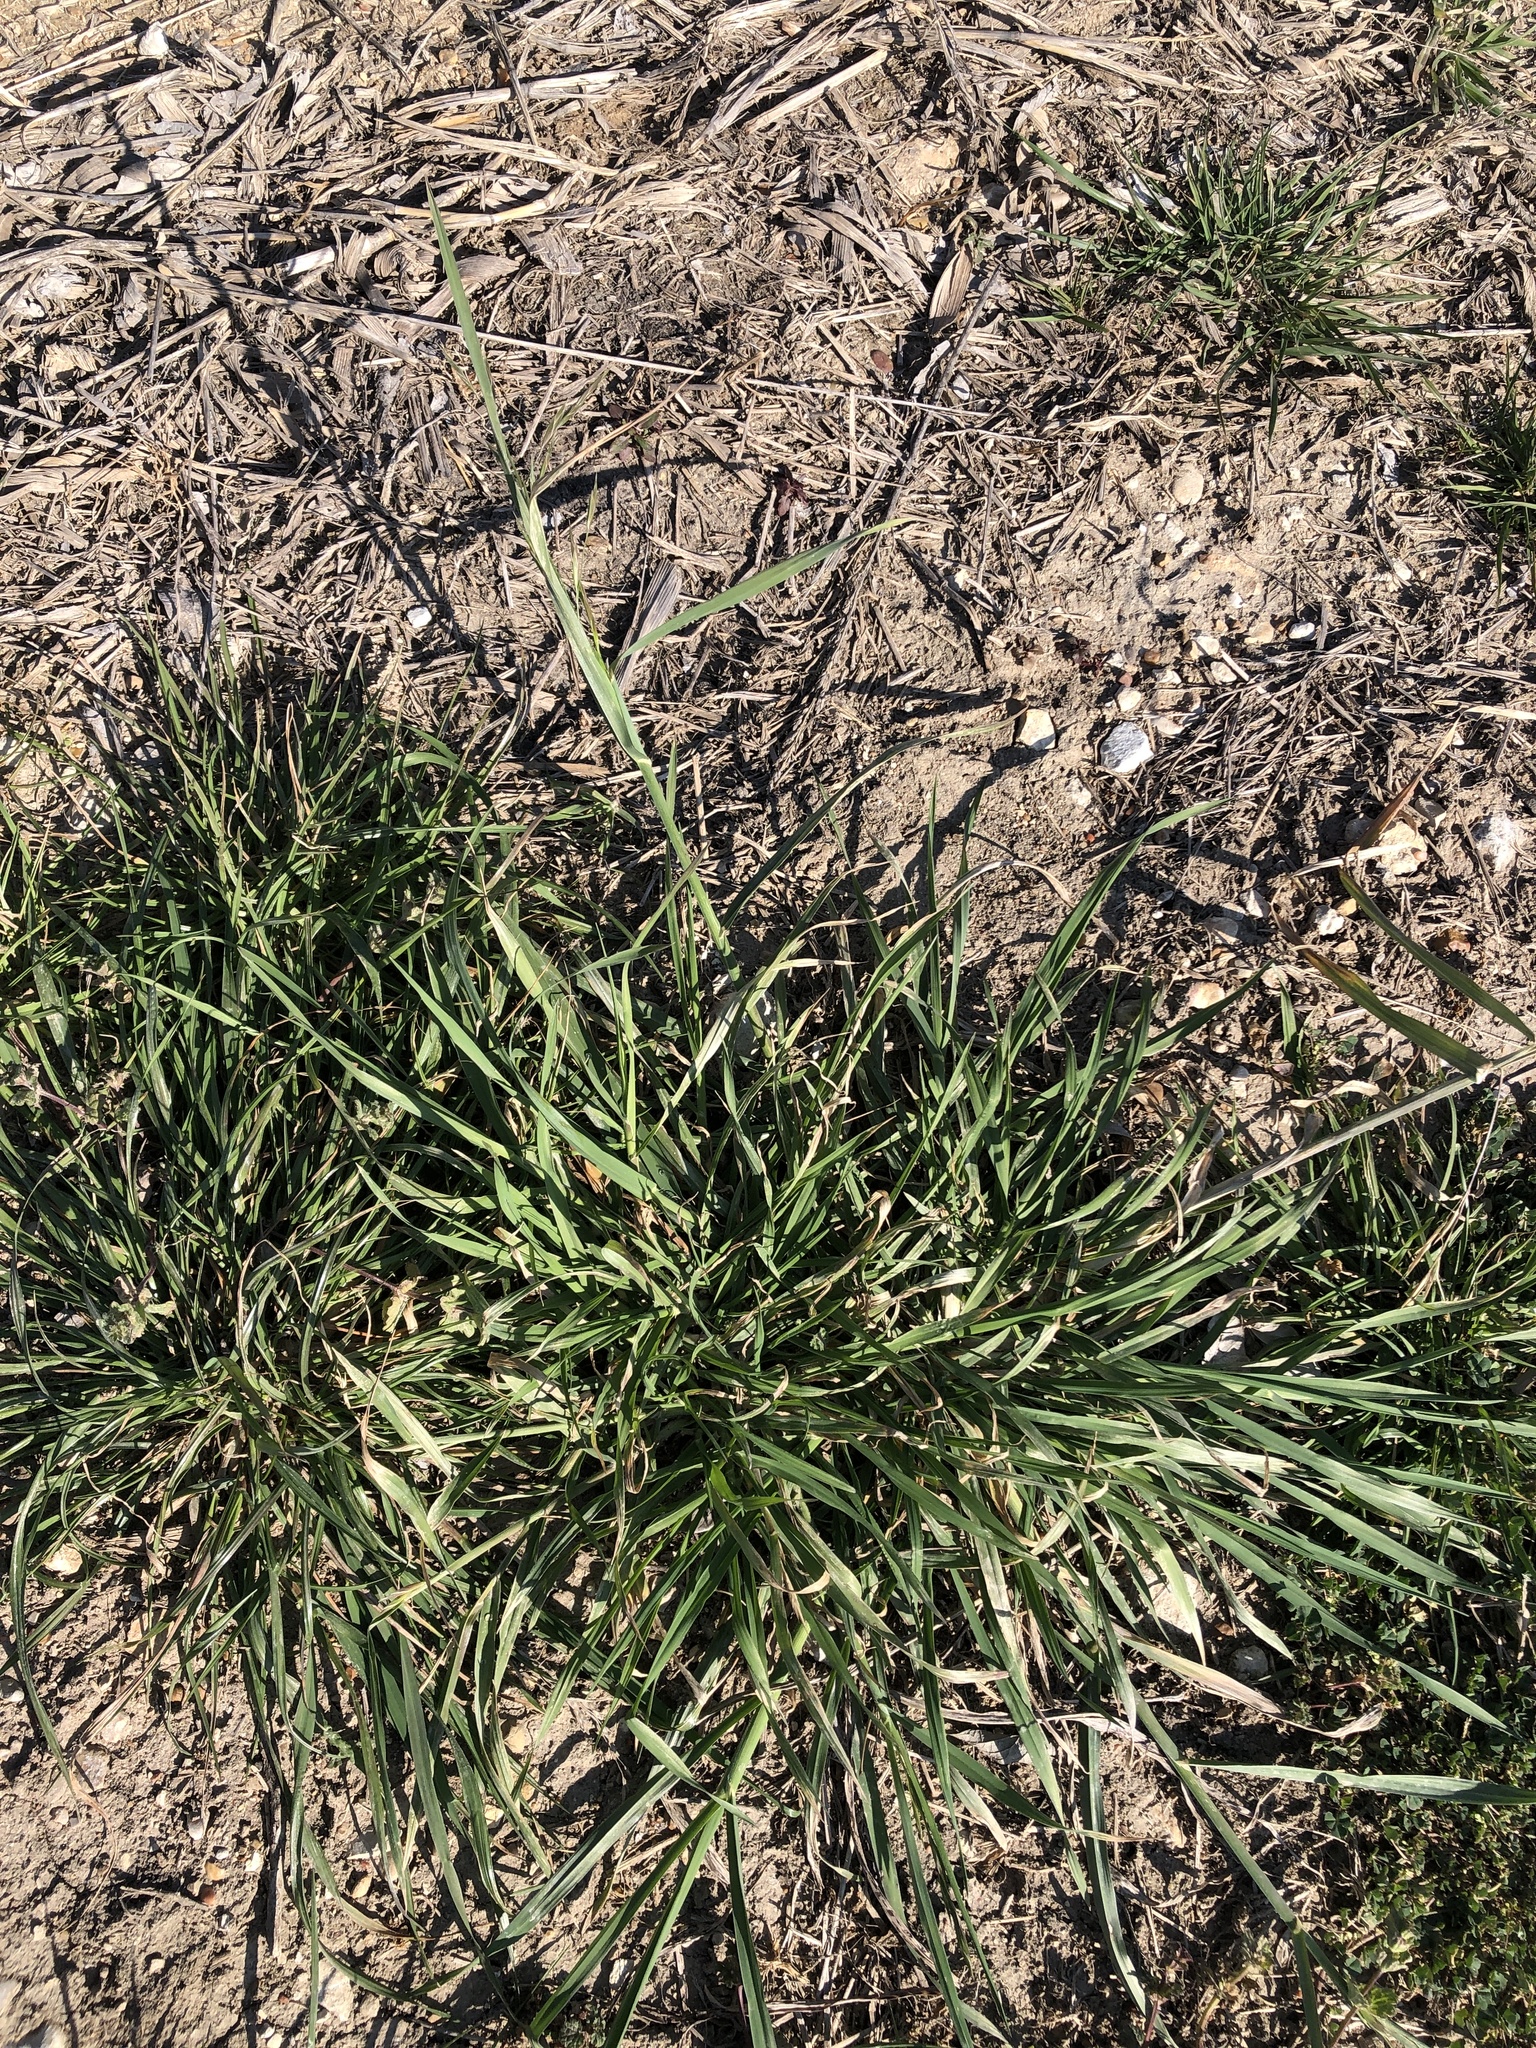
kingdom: Plantae
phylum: Tracheophyta
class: Liliopsida
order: Poales
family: Poaceae
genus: Bromus
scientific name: Bromus catharticus
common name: Rescuegrass
